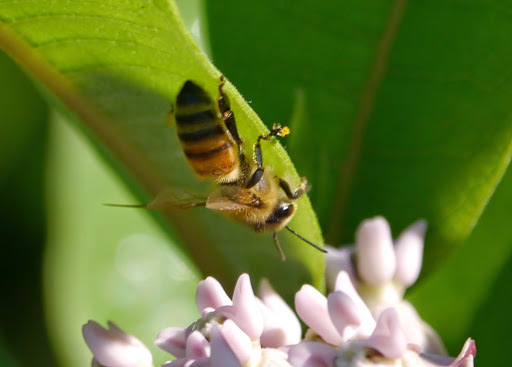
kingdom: Animalia
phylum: Arthropoda
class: Insecta
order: Hymenoptera
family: Apidae
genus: Apis
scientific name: Apis mellifera
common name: Honey bee
